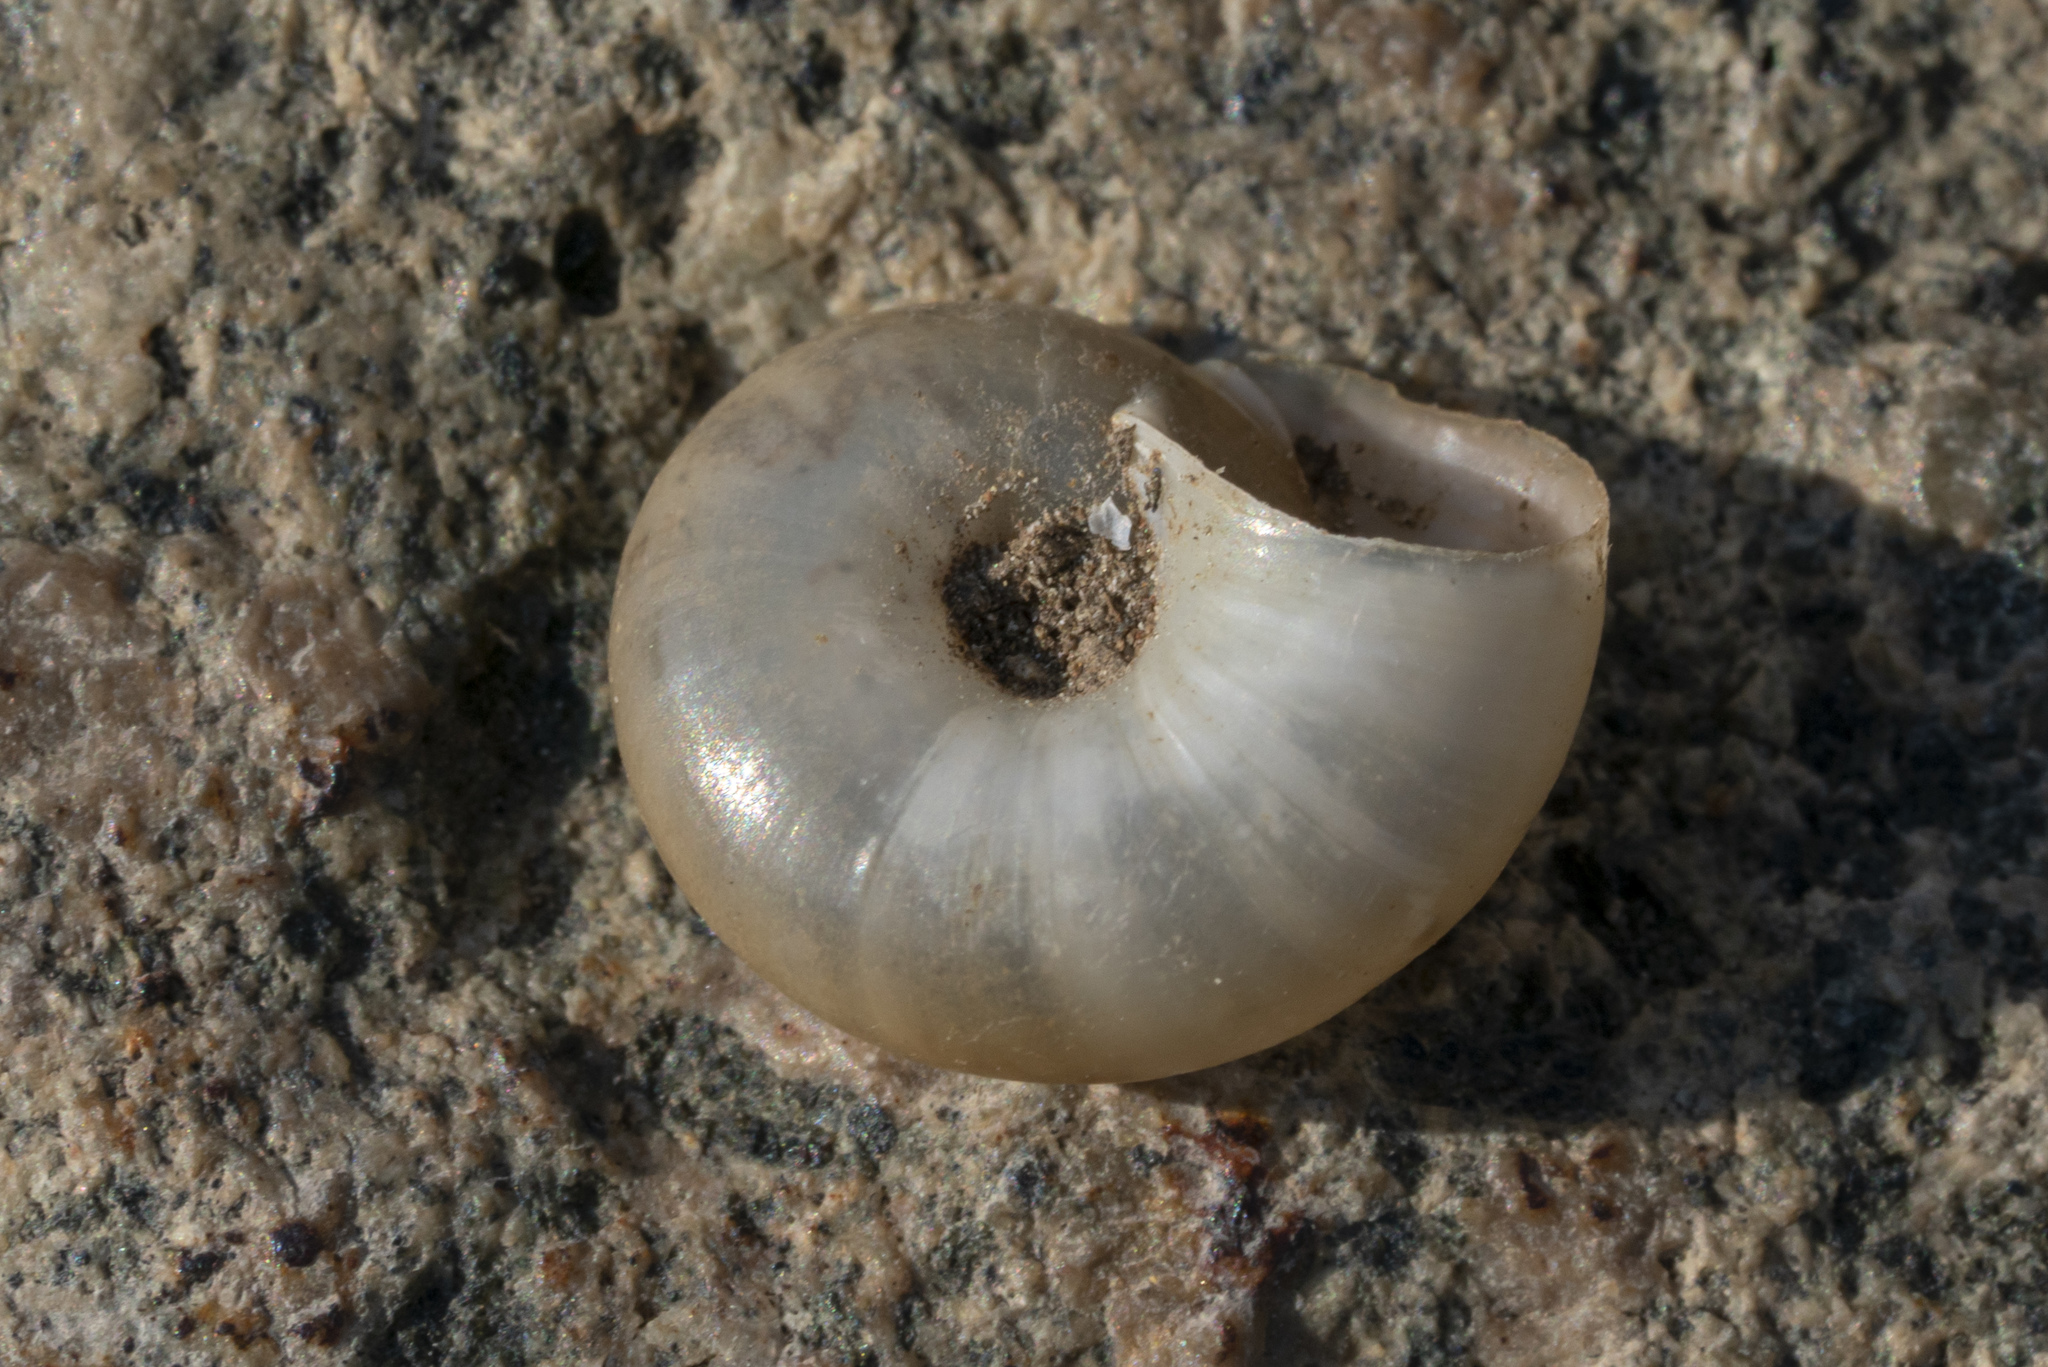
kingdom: Animalia
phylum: Mollusca
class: Gastropoda
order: Stylommatophora
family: Oxychilidae
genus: Eopolita
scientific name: Eopolita protensa
